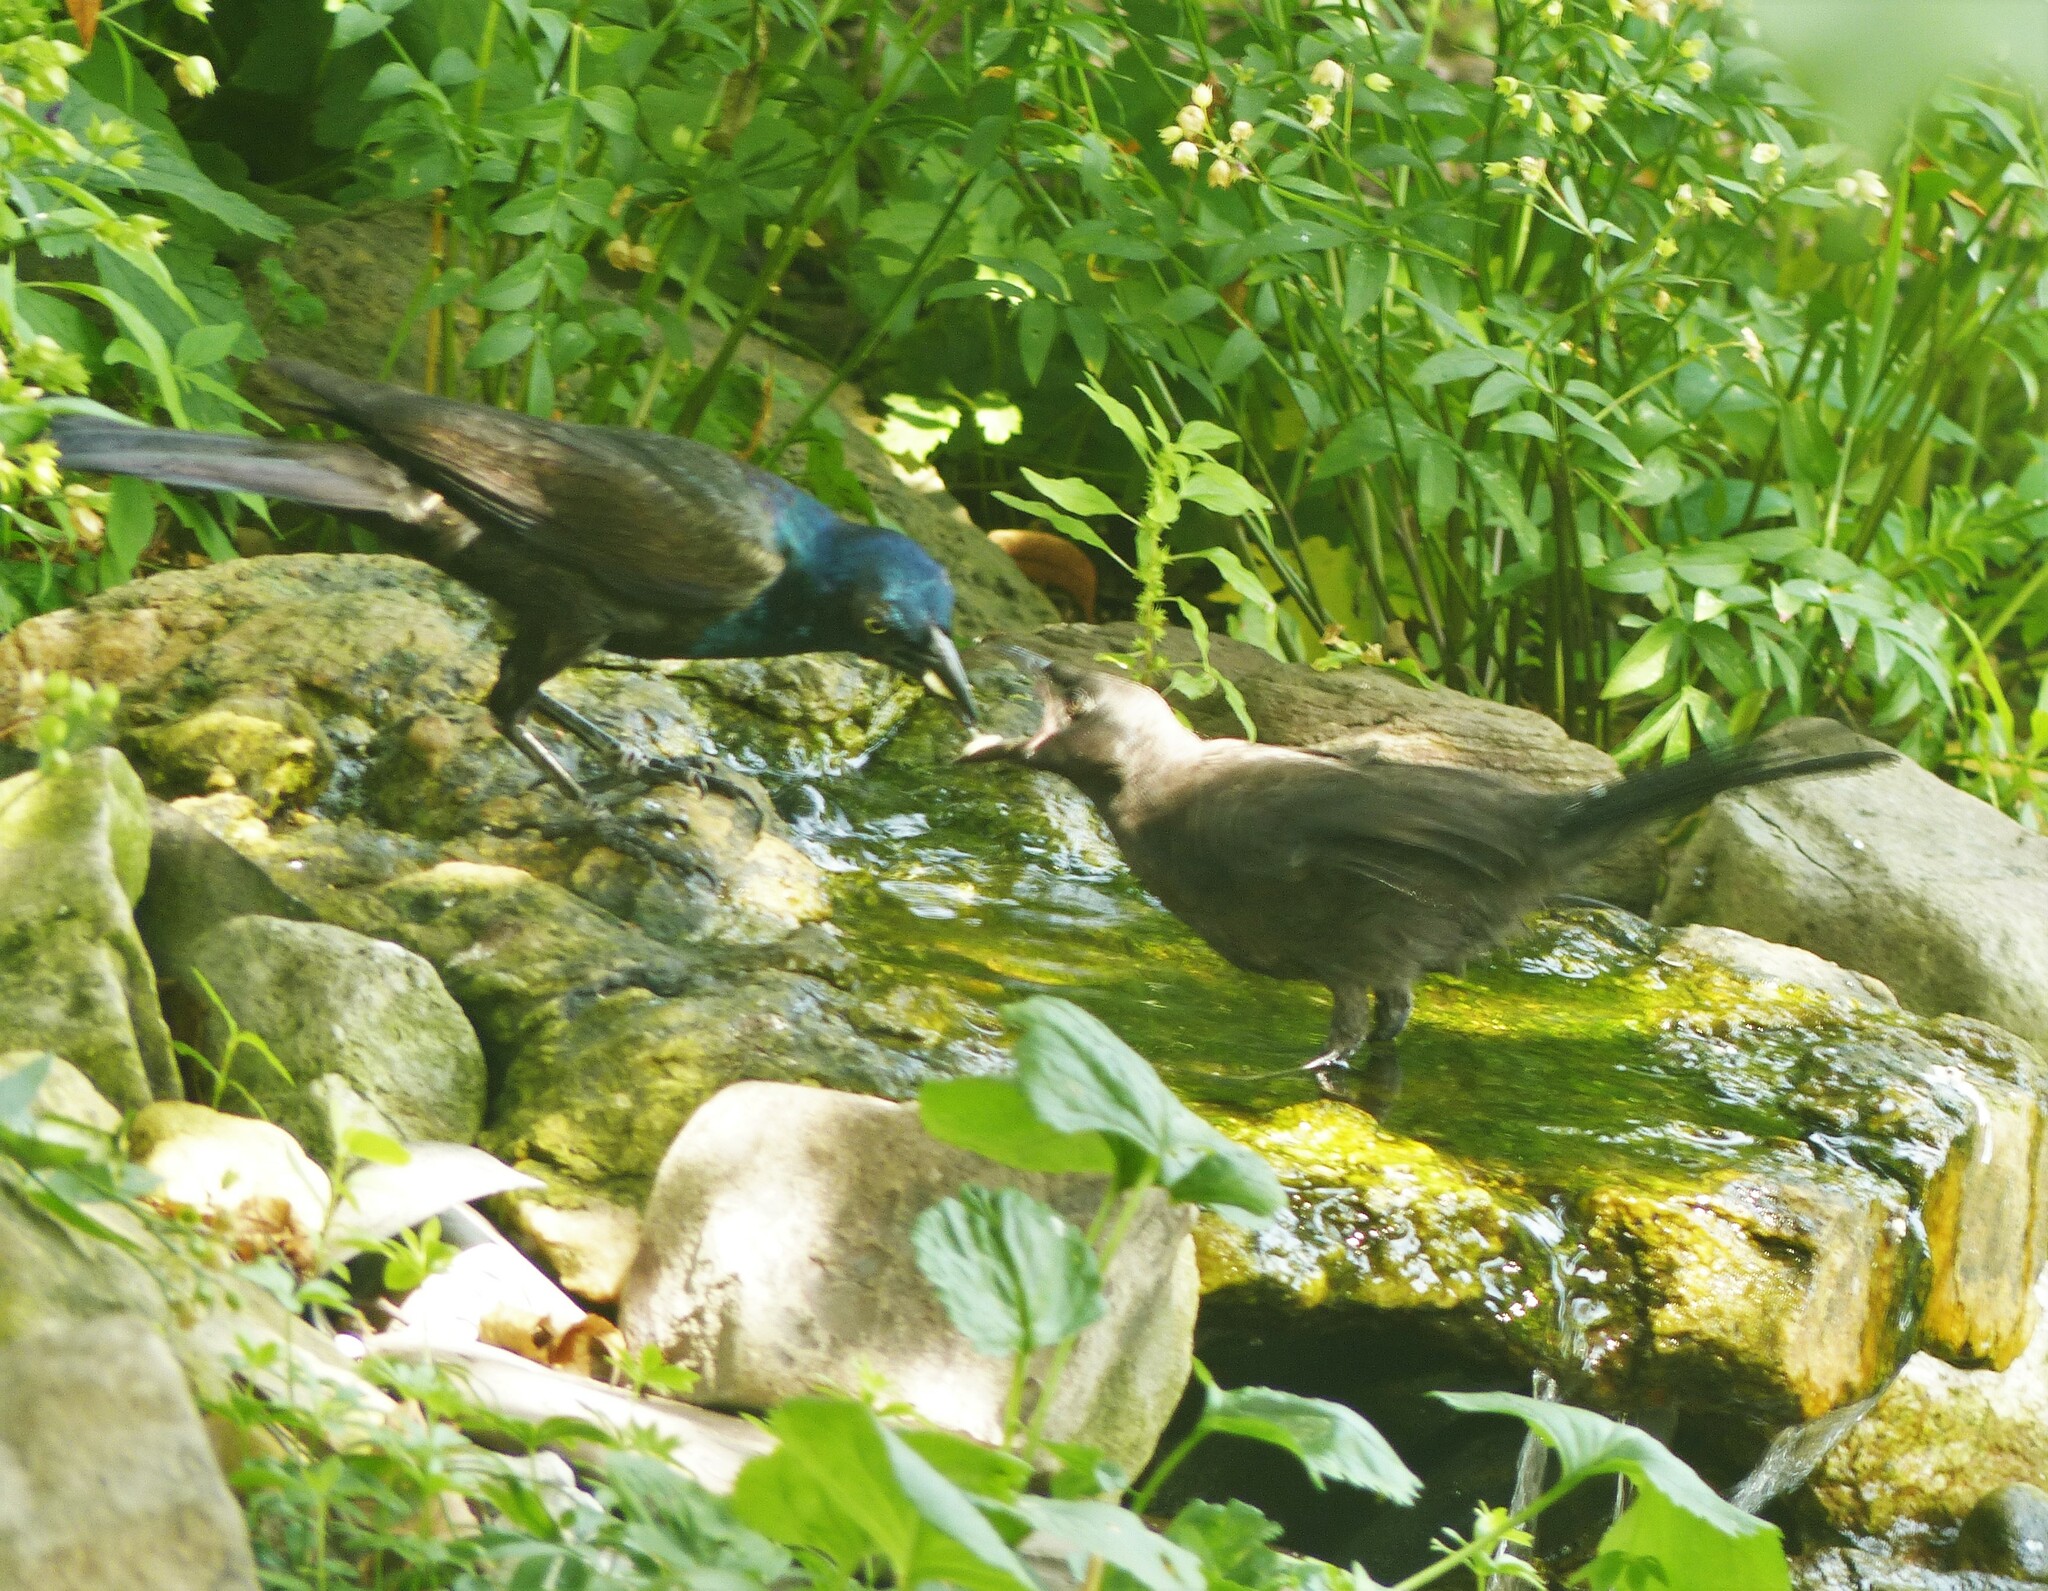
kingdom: Animalia
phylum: Chordata
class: Aves
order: Passeriformes
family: Icteridae
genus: Quiscalus
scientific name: Quiscalus quiscula
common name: Common grackle
